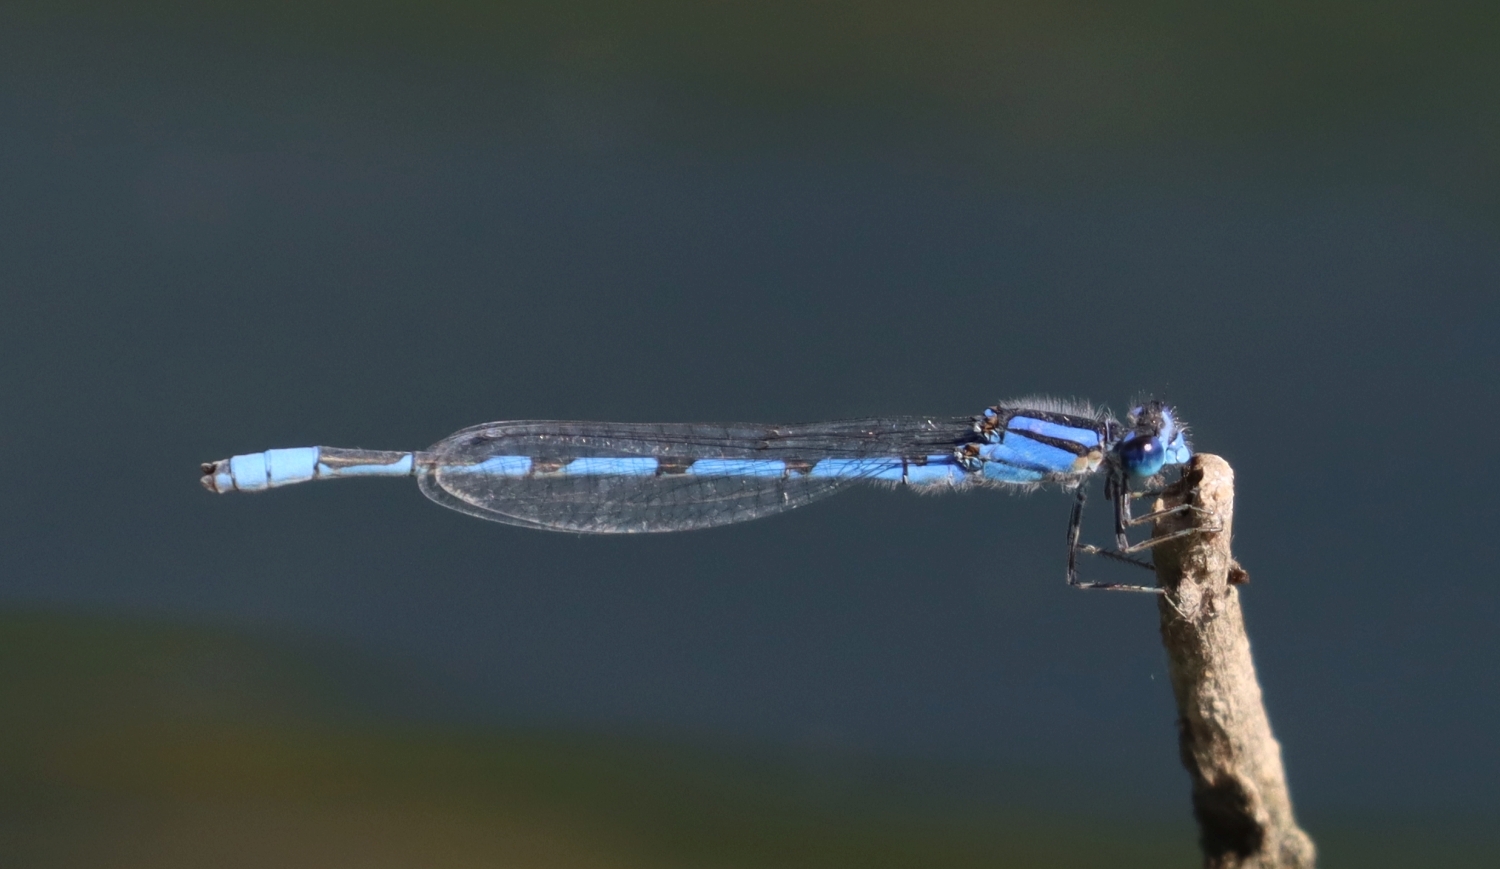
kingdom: Animalia
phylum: Arthropoda
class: Insecta
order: Odonata
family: Coenagrionidae
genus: Enallagma
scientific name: Enallagma civile
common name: Damselfly
